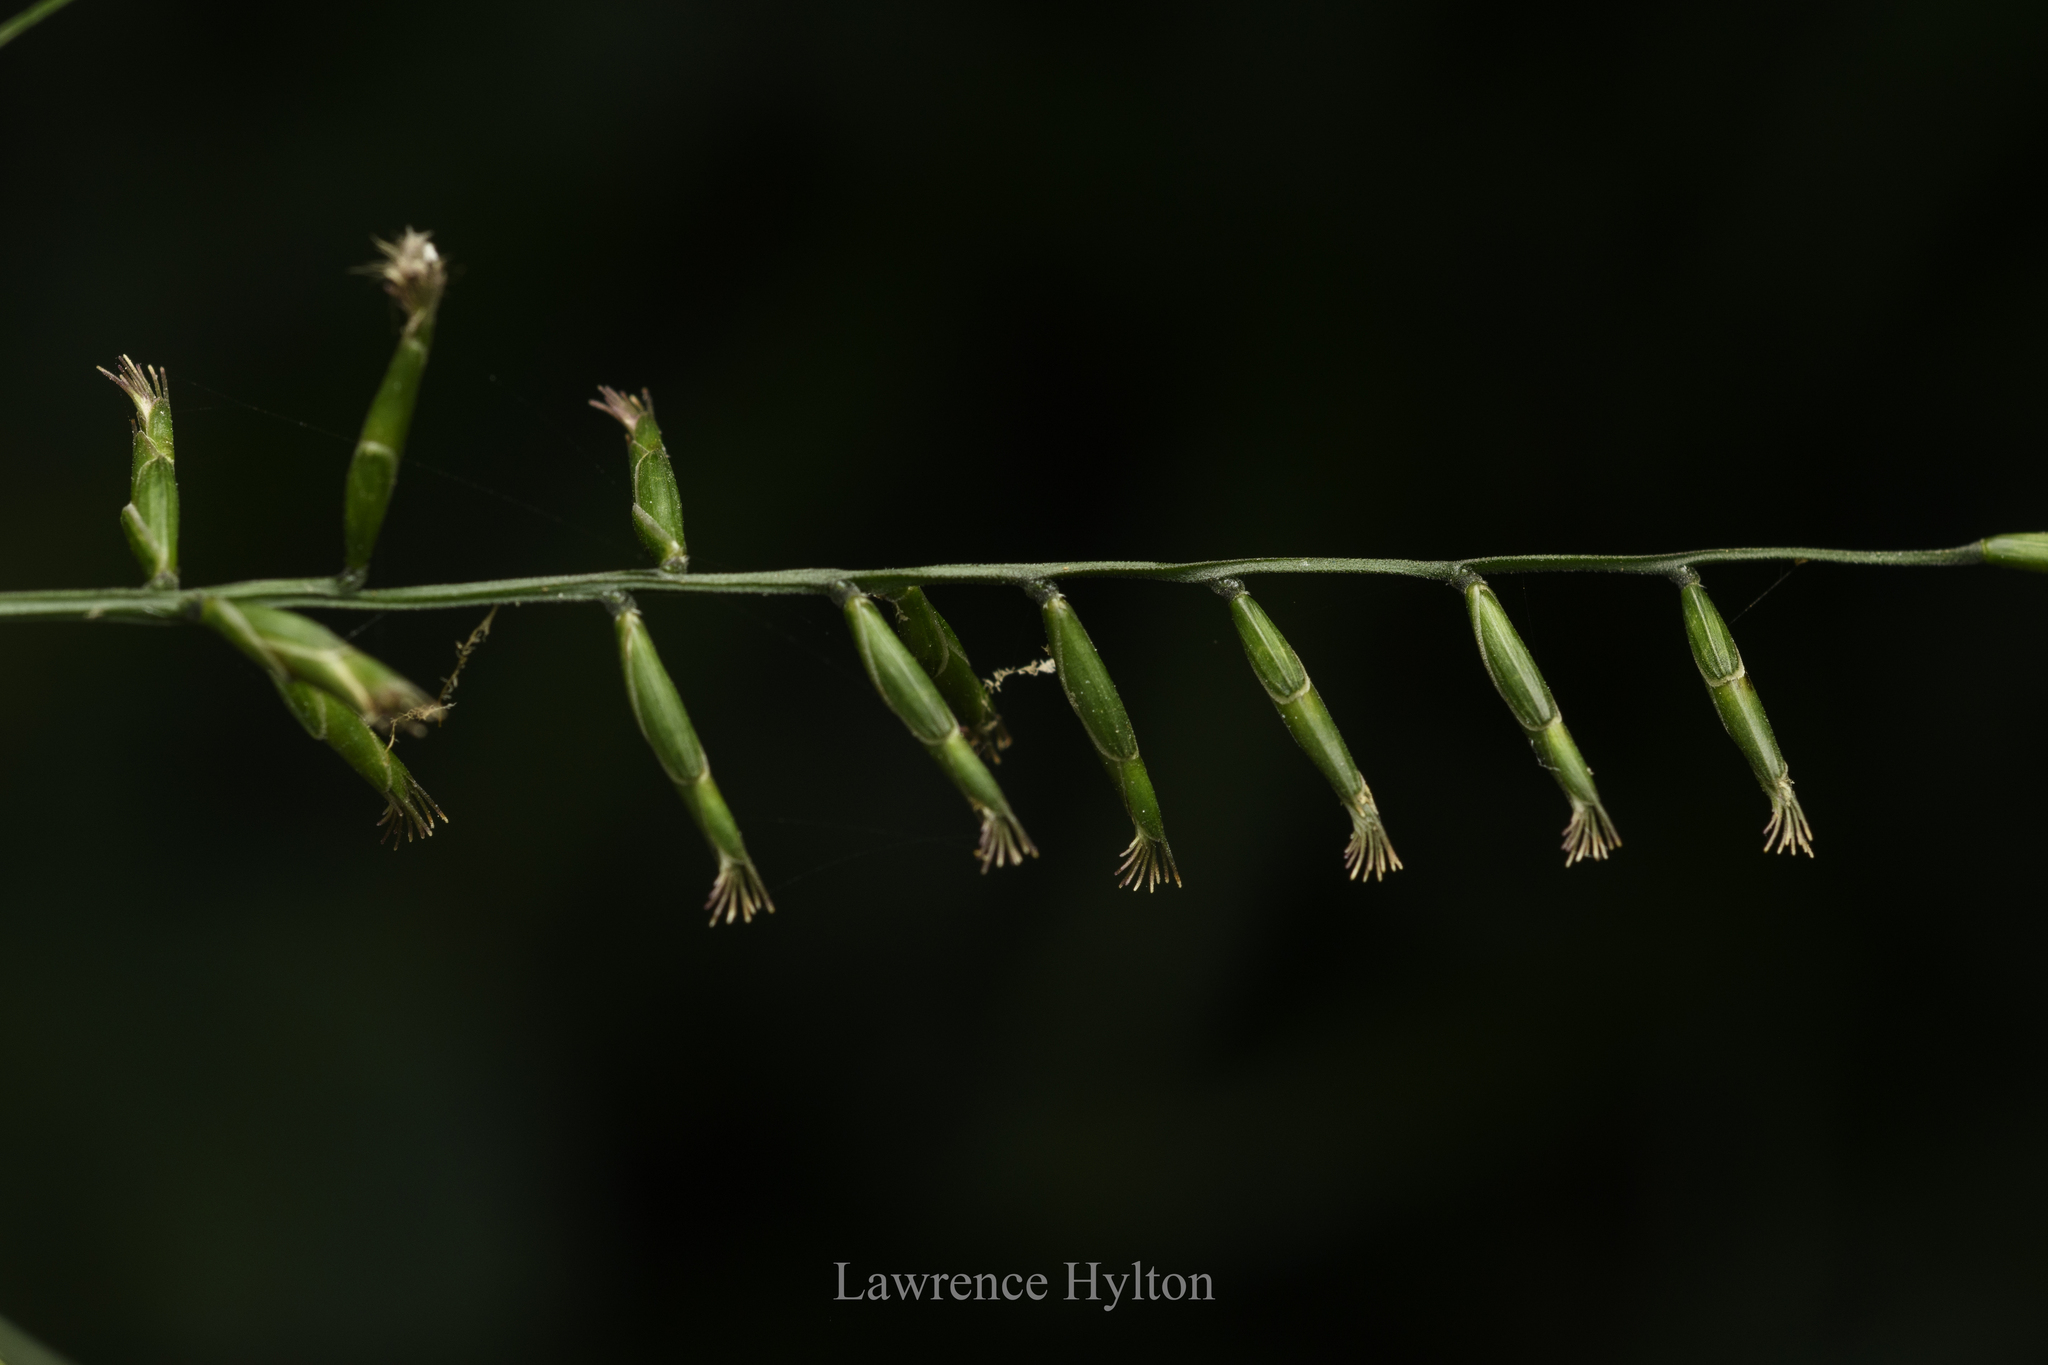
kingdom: Plantae
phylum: Tracheophyta
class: Liliopsida
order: Poales
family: Poaceae
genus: Lophatherum
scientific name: Lophatherum gracile
